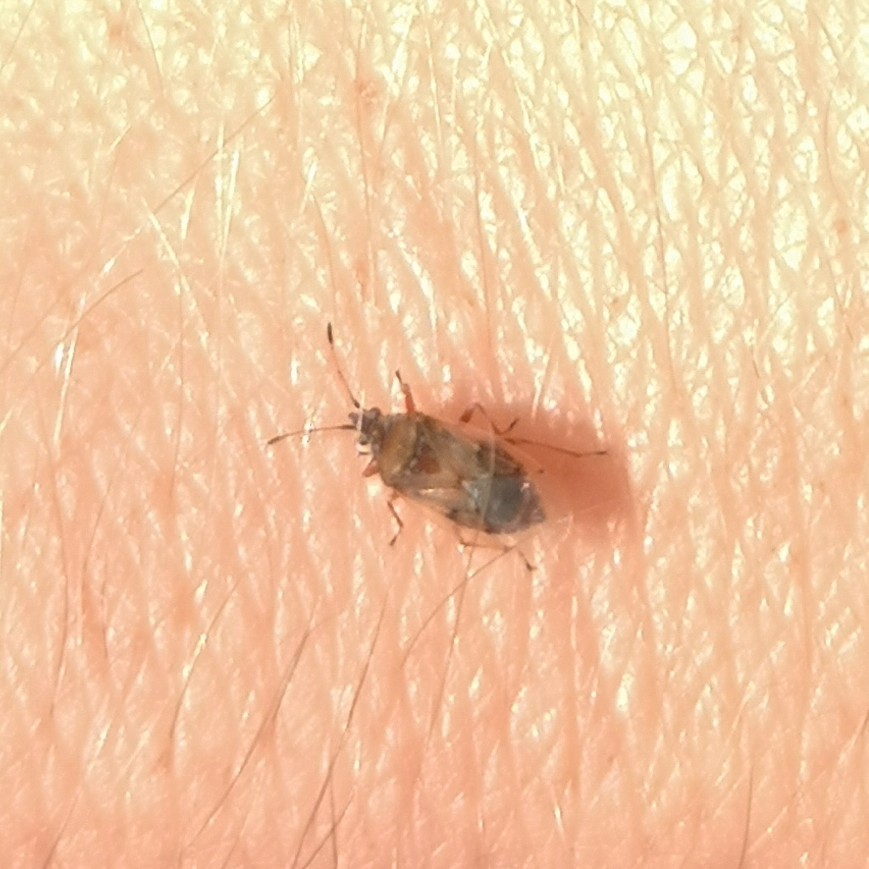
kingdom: Animalia
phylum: Arthropoda
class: Insecta
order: Hemiptera
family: Lygaeidae
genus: Kleidocerys
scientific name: Kleidocerys resedae
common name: Birch catkin bug
